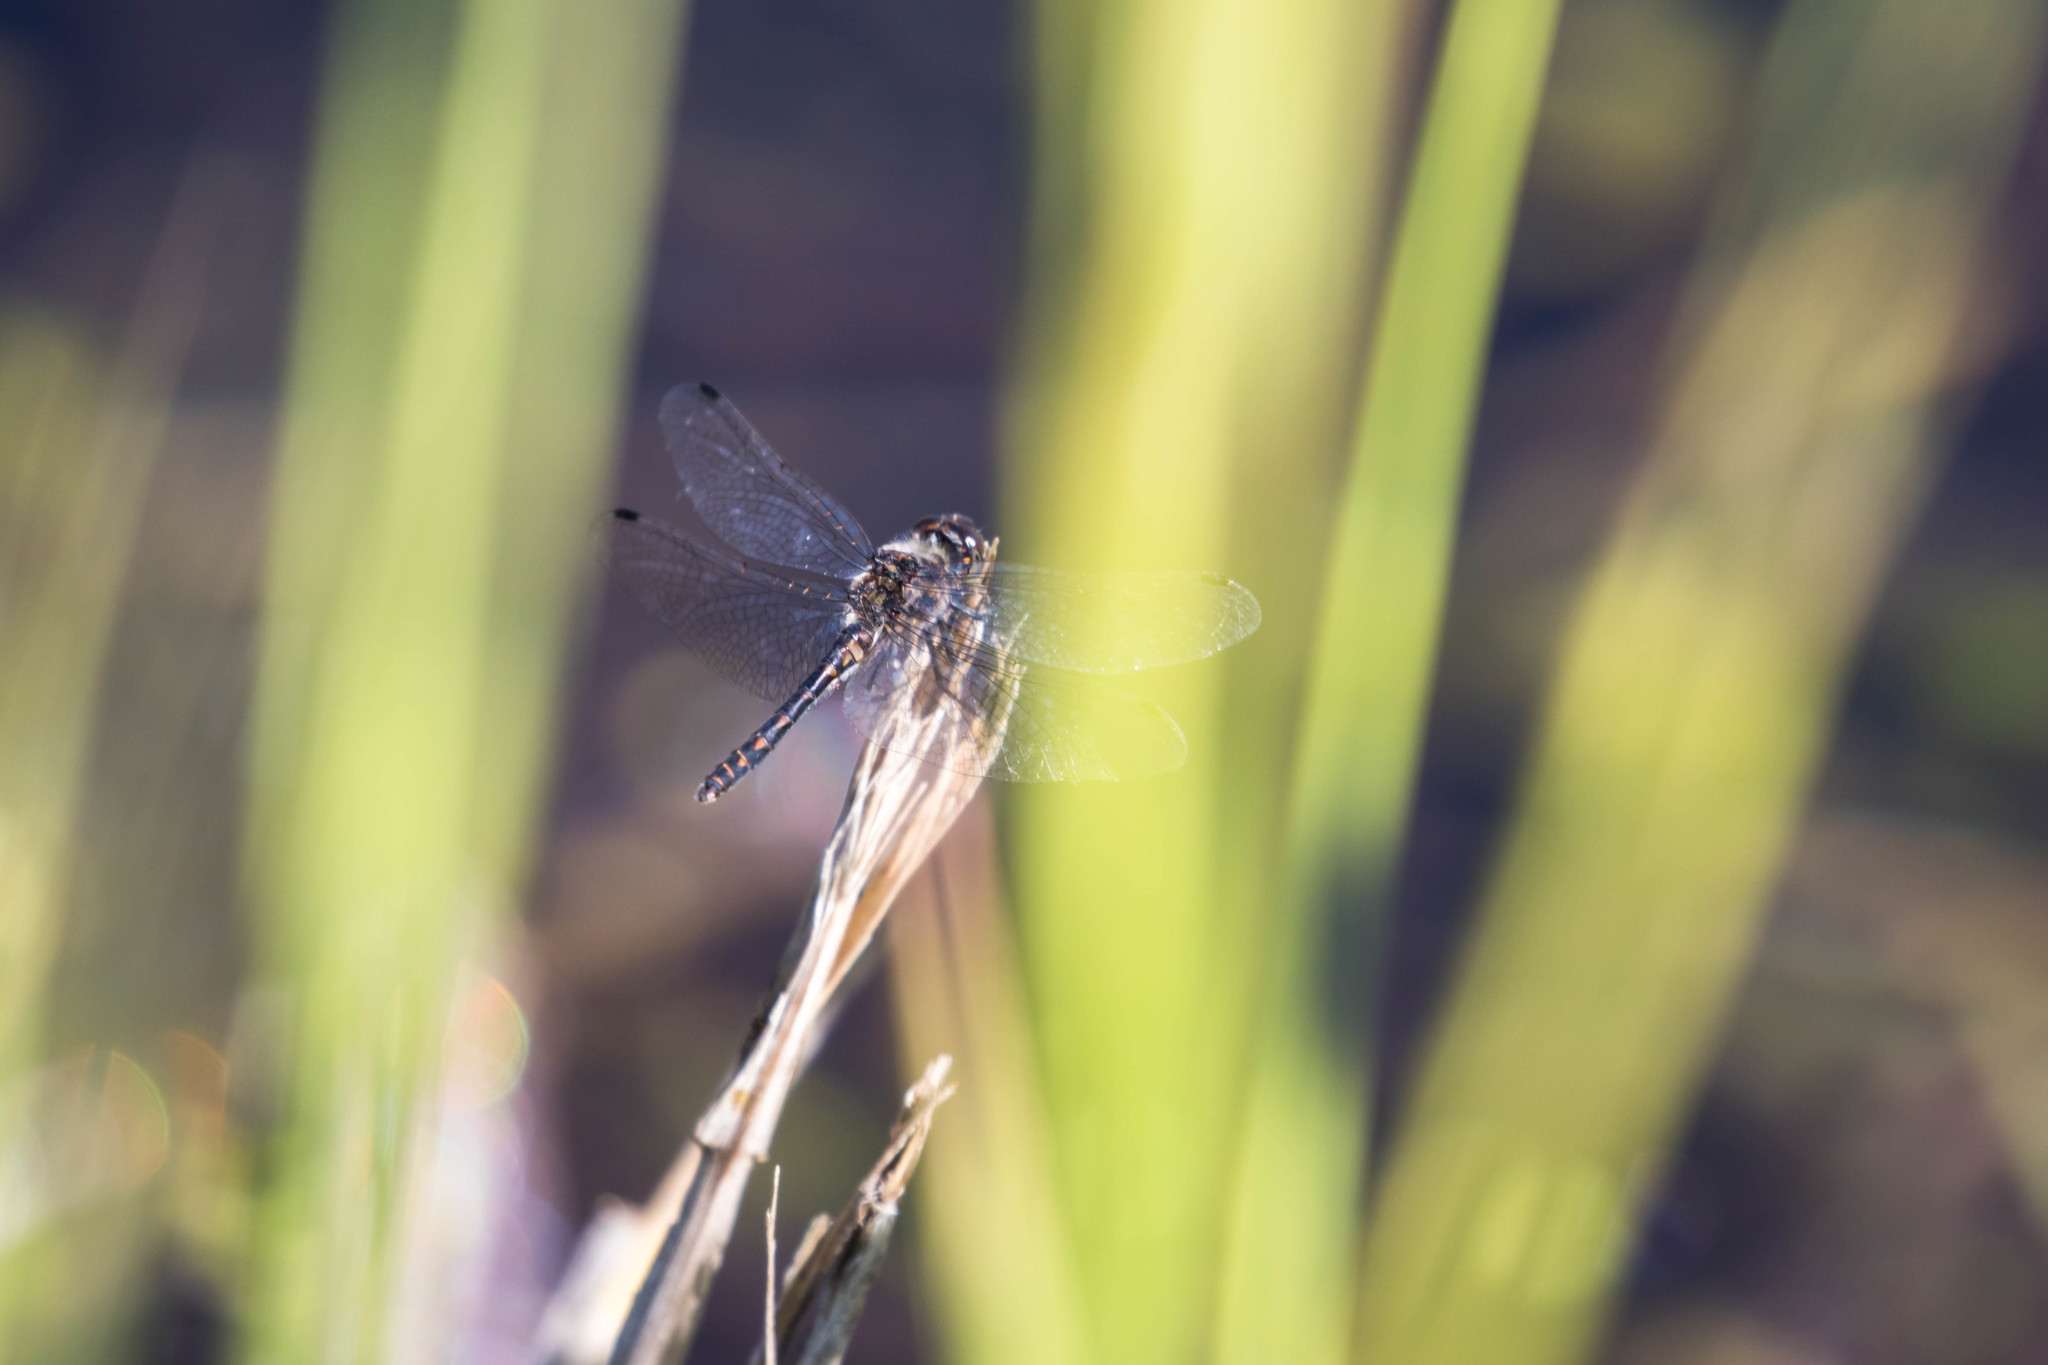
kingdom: Animalia
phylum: Arthropoda
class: Insecta
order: Odonata
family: Libellulidae
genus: Sympetrum
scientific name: Sympetrum danae
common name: Black darter
